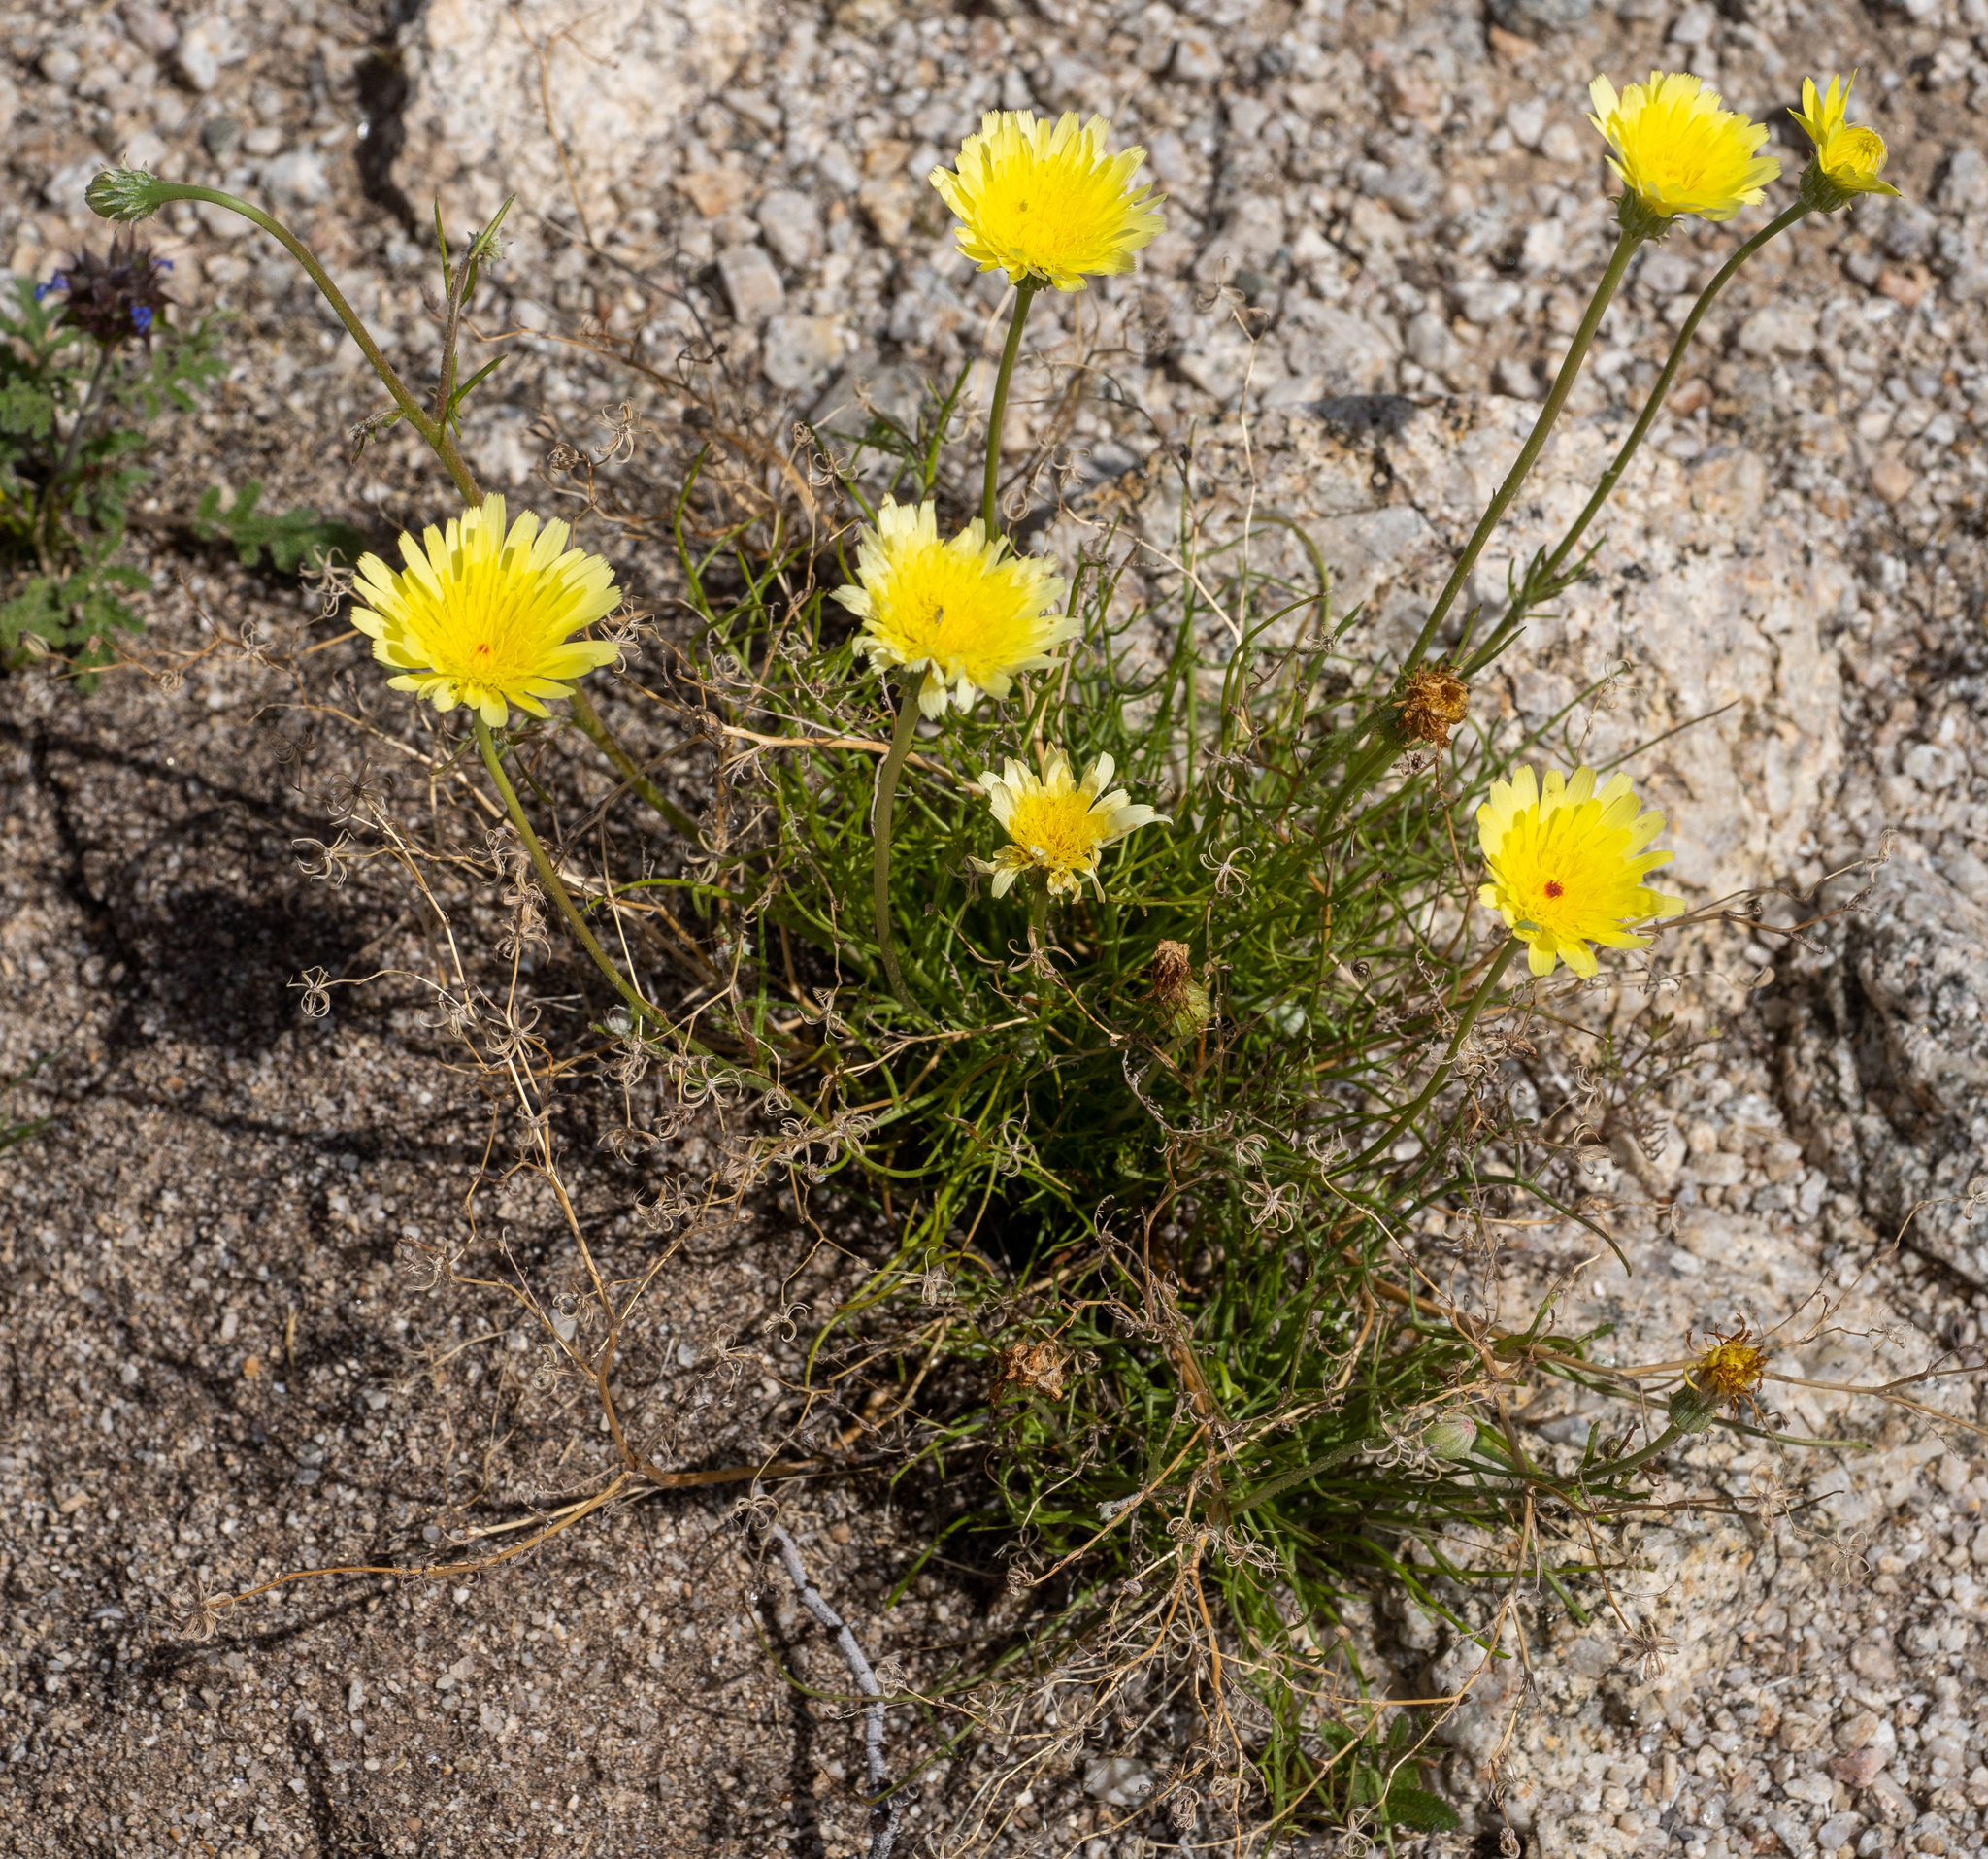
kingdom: Plantae
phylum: Tracheophyta
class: Magnoliopsida
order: Asterales
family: Asteraceae
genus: Malacothrix
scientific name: Malacothrix glabrata
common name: Smooth desert-dandelion
